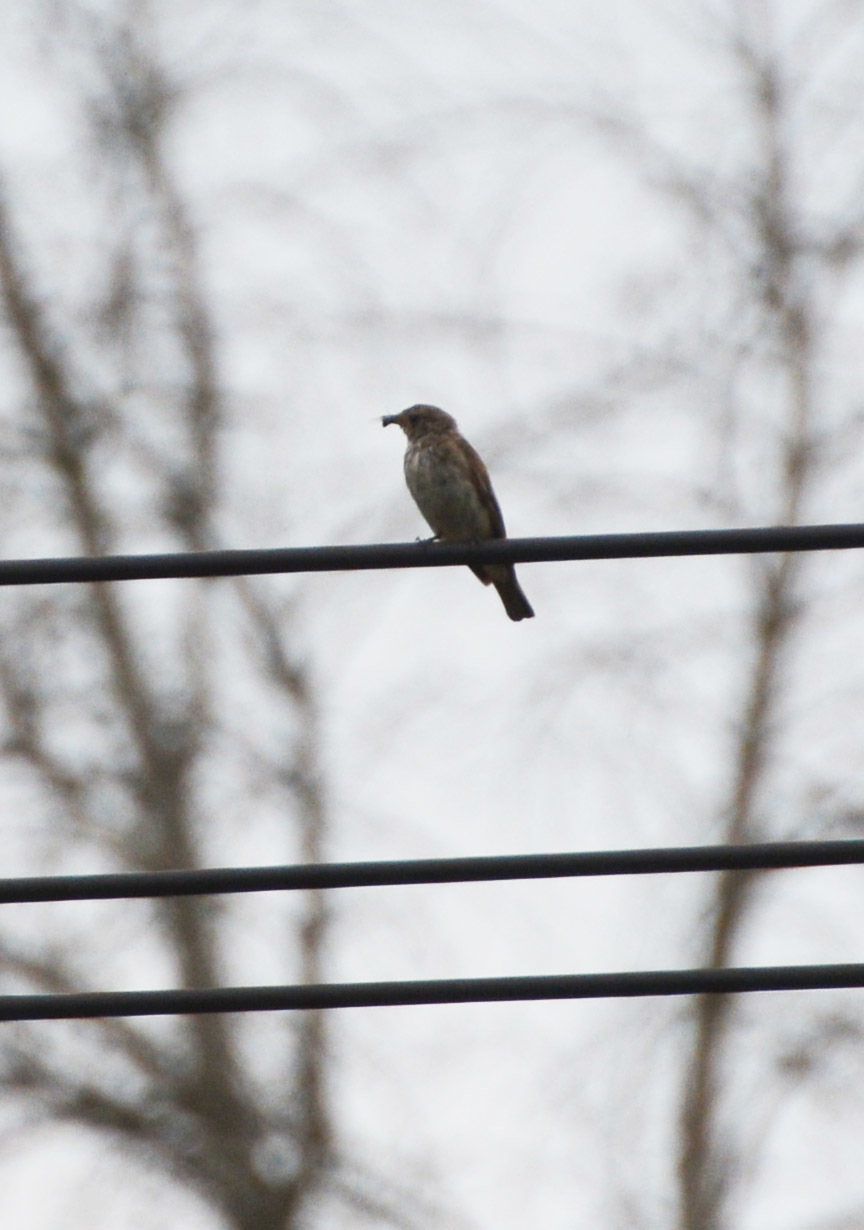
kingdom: Animalia
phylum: Chordata
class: Aves
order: Passeriformes
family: Muscicapidae
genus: Muscicapa
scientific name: Muscicapa striata
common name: Spotted flycatcher
